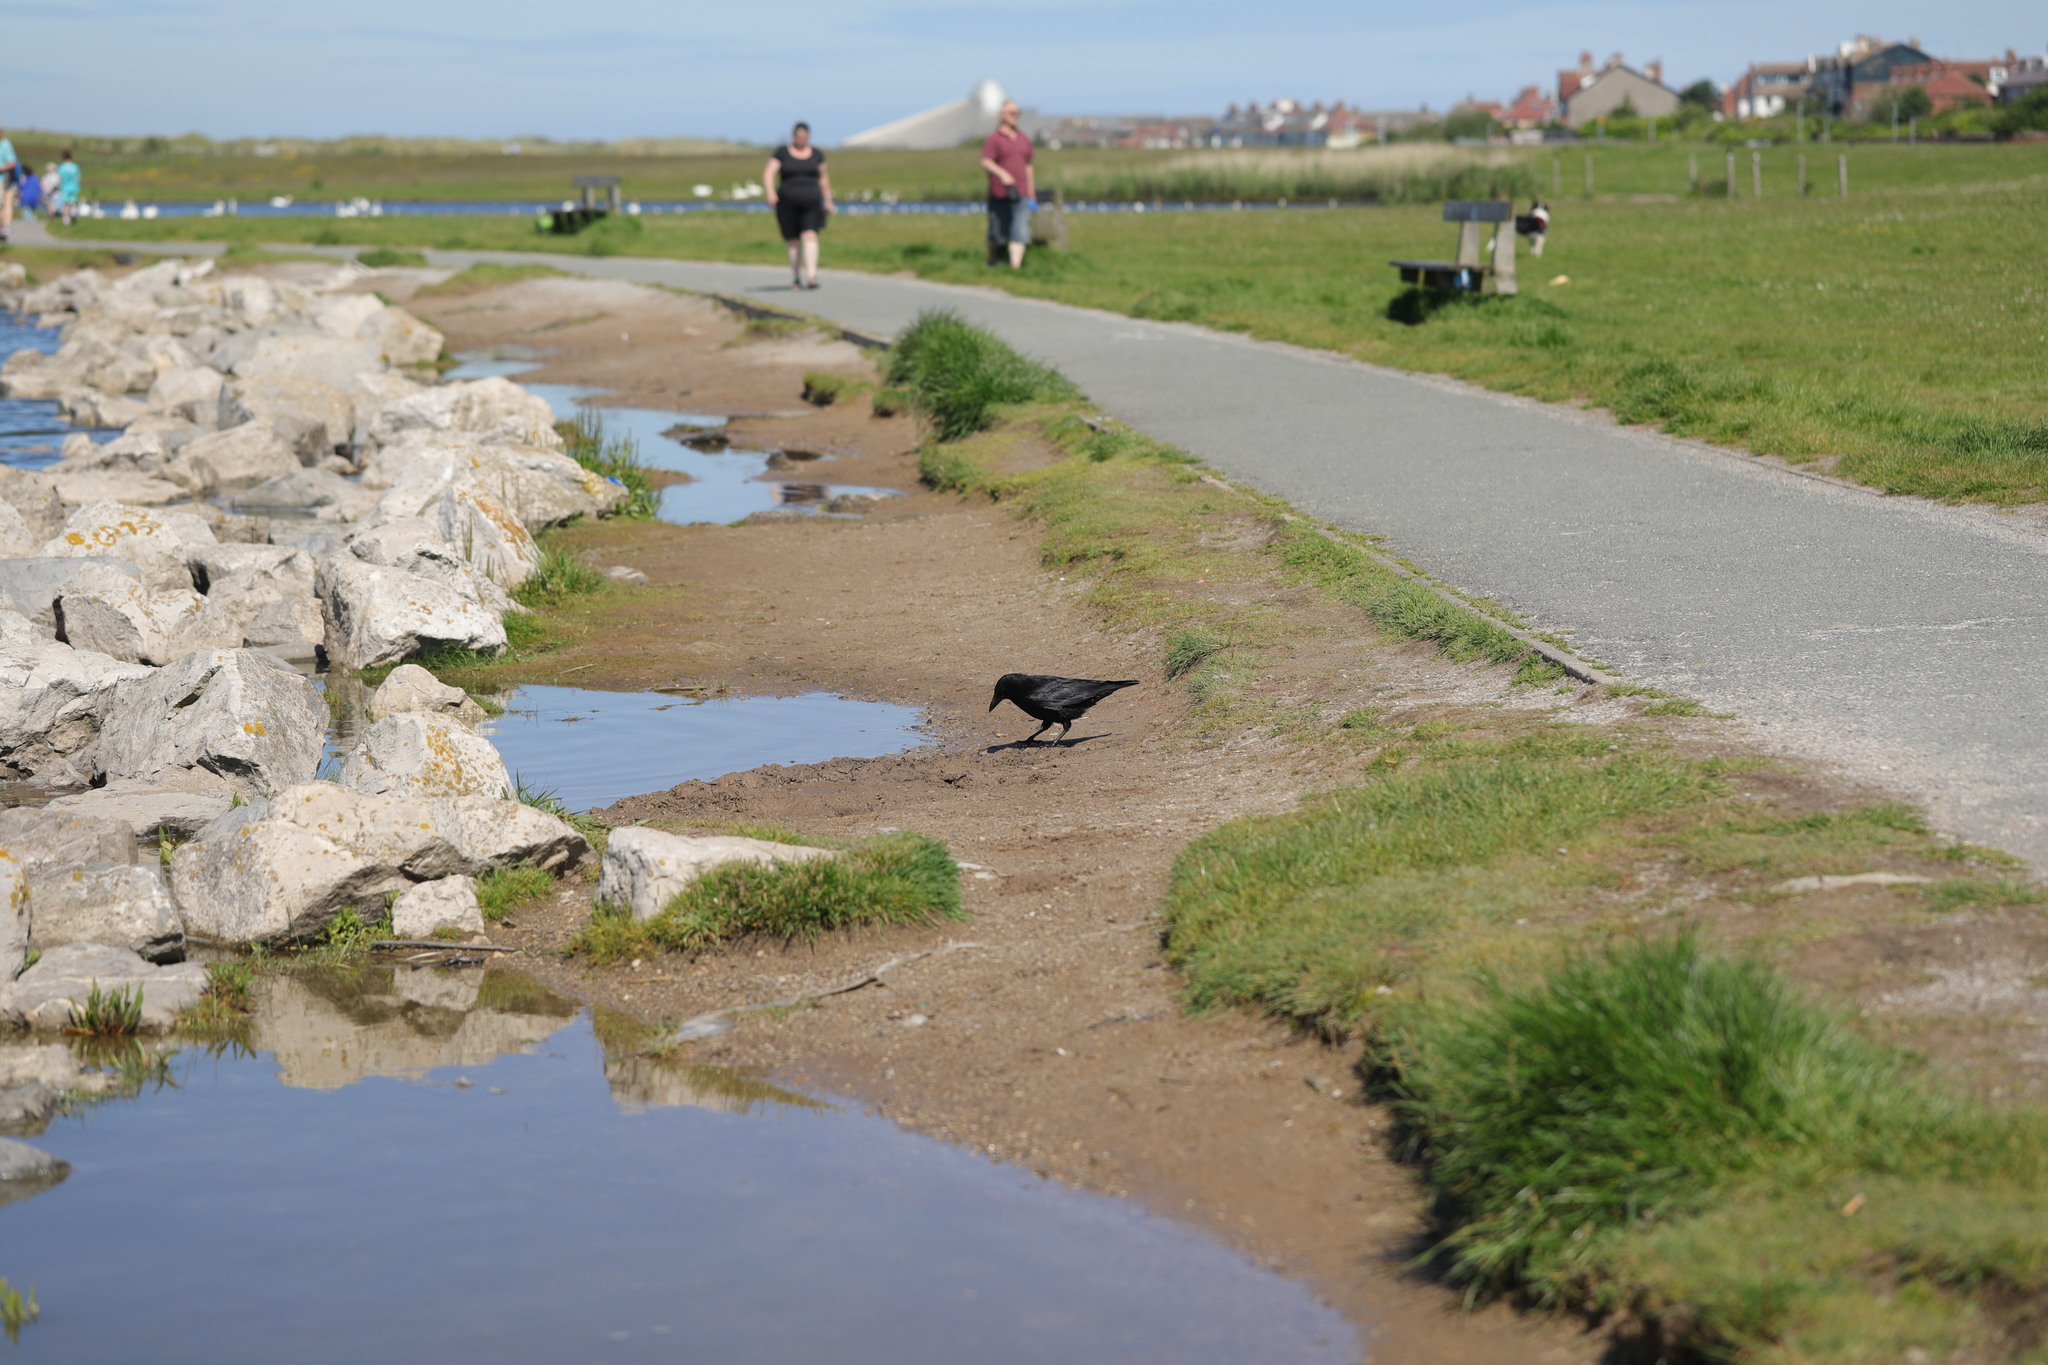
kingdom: Animalia
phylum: Chordata
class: Aves
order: Passeriformes
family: Corvidae
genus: Corvus
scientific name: Corvus corone
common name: Carrion crow
